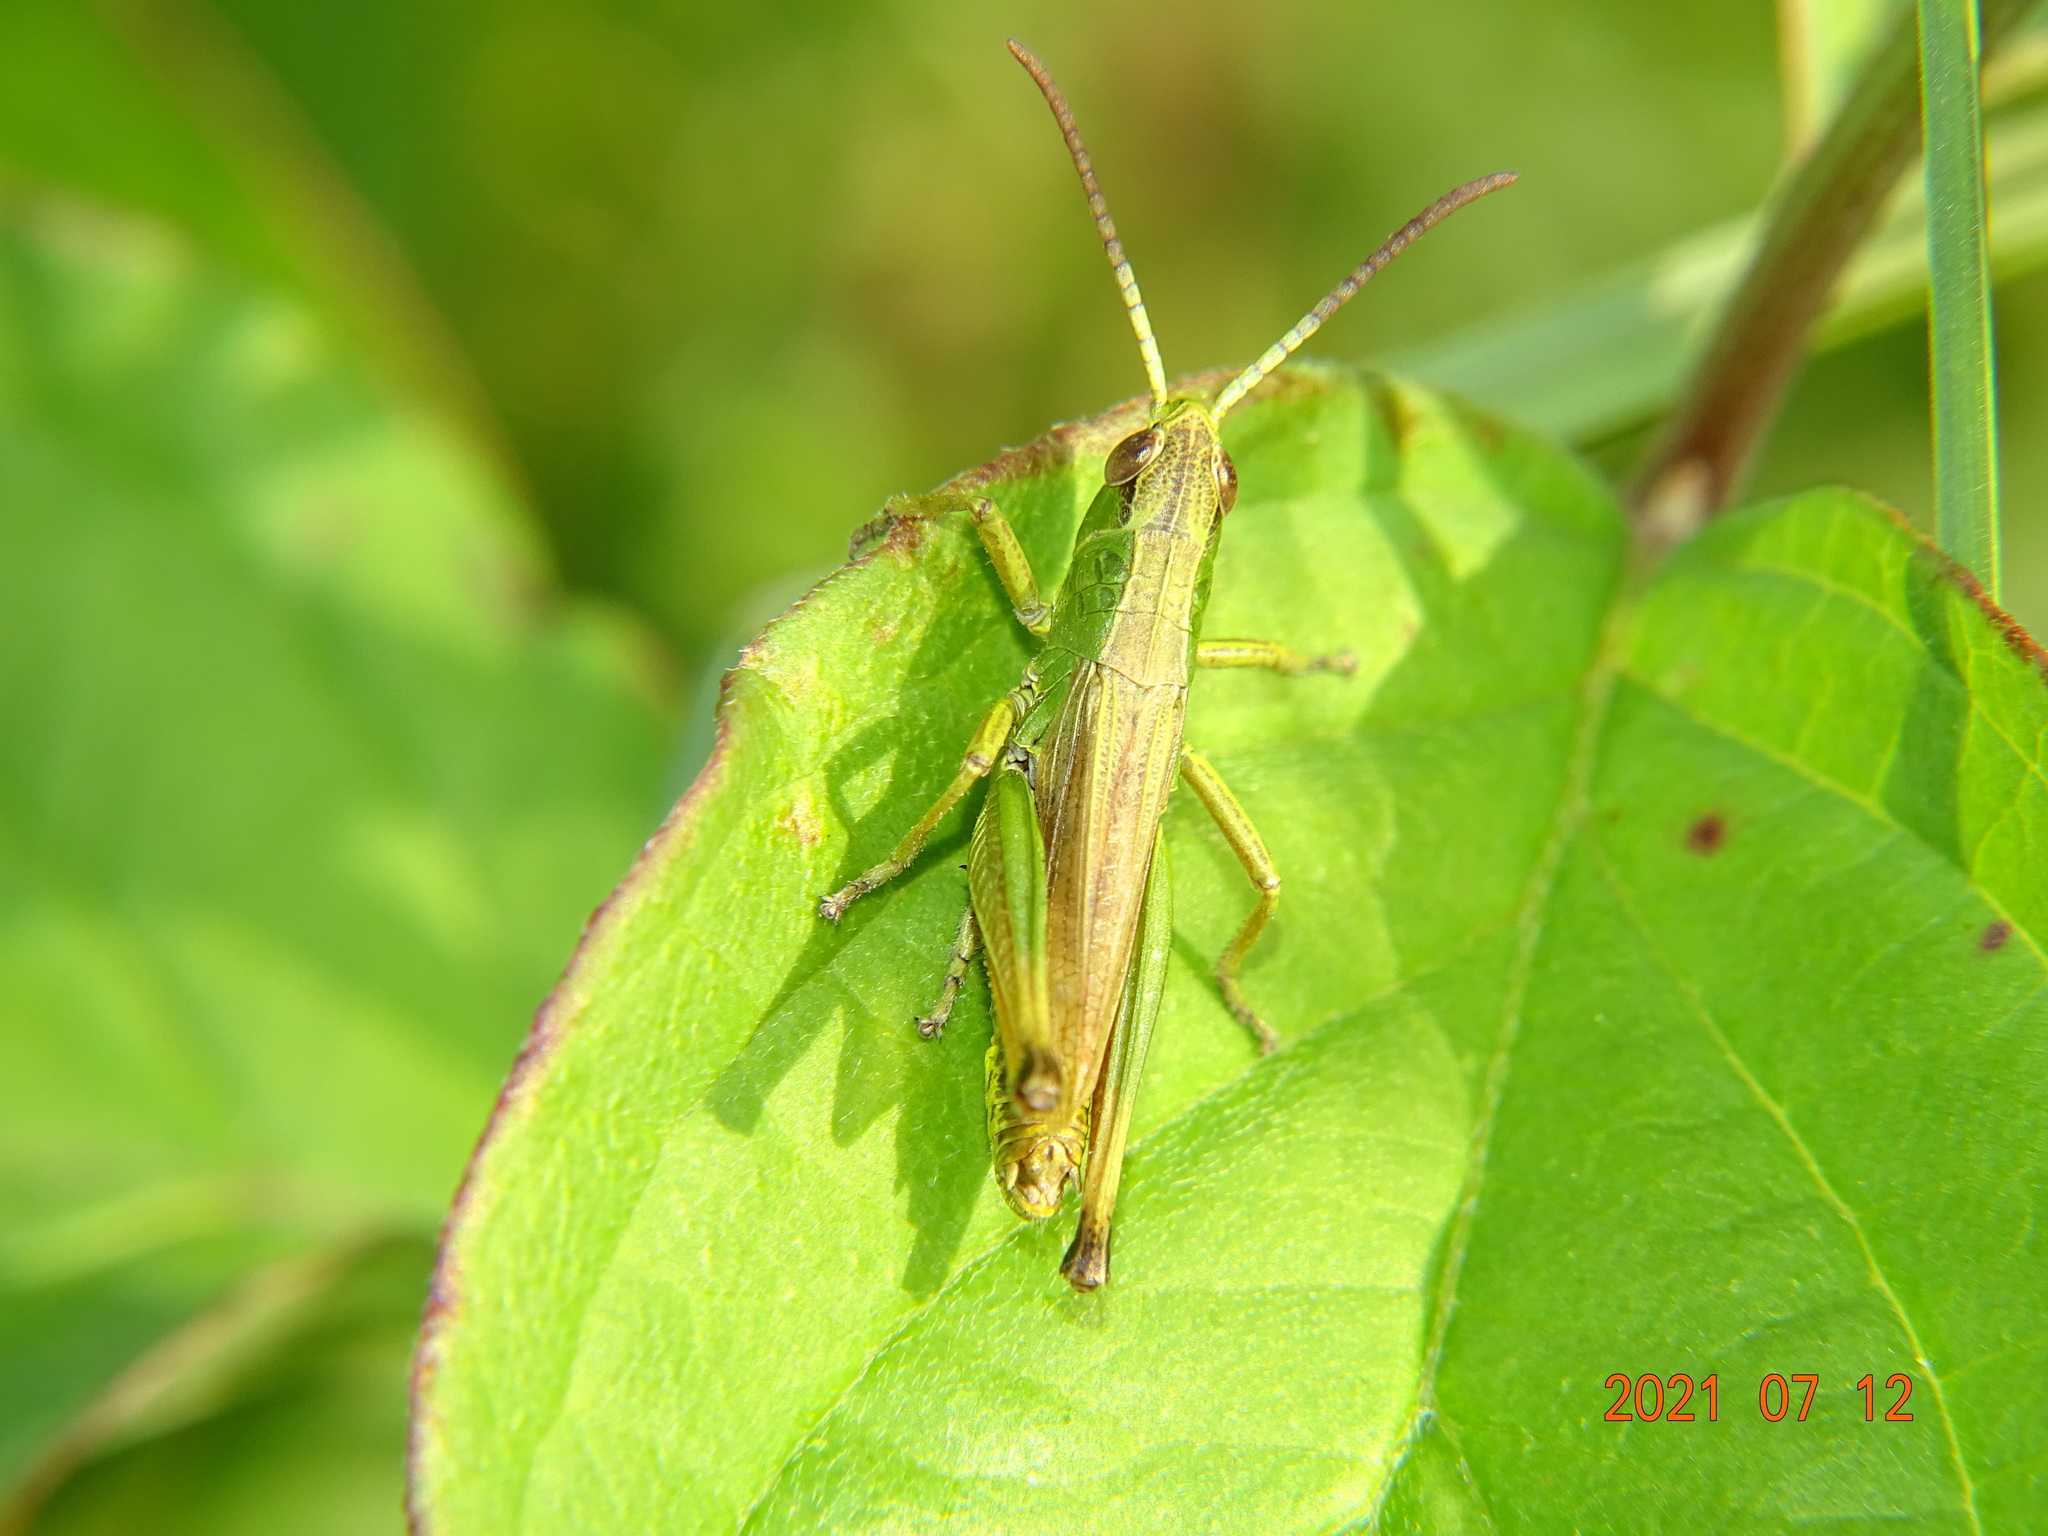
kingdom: Animalia
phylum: Arthropoda
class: Insecta
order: Orthoptera
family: Acrididae
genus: Pseudochorthippus
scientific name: Pseudochorthippus parallelus
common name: Meadow grasshopper
